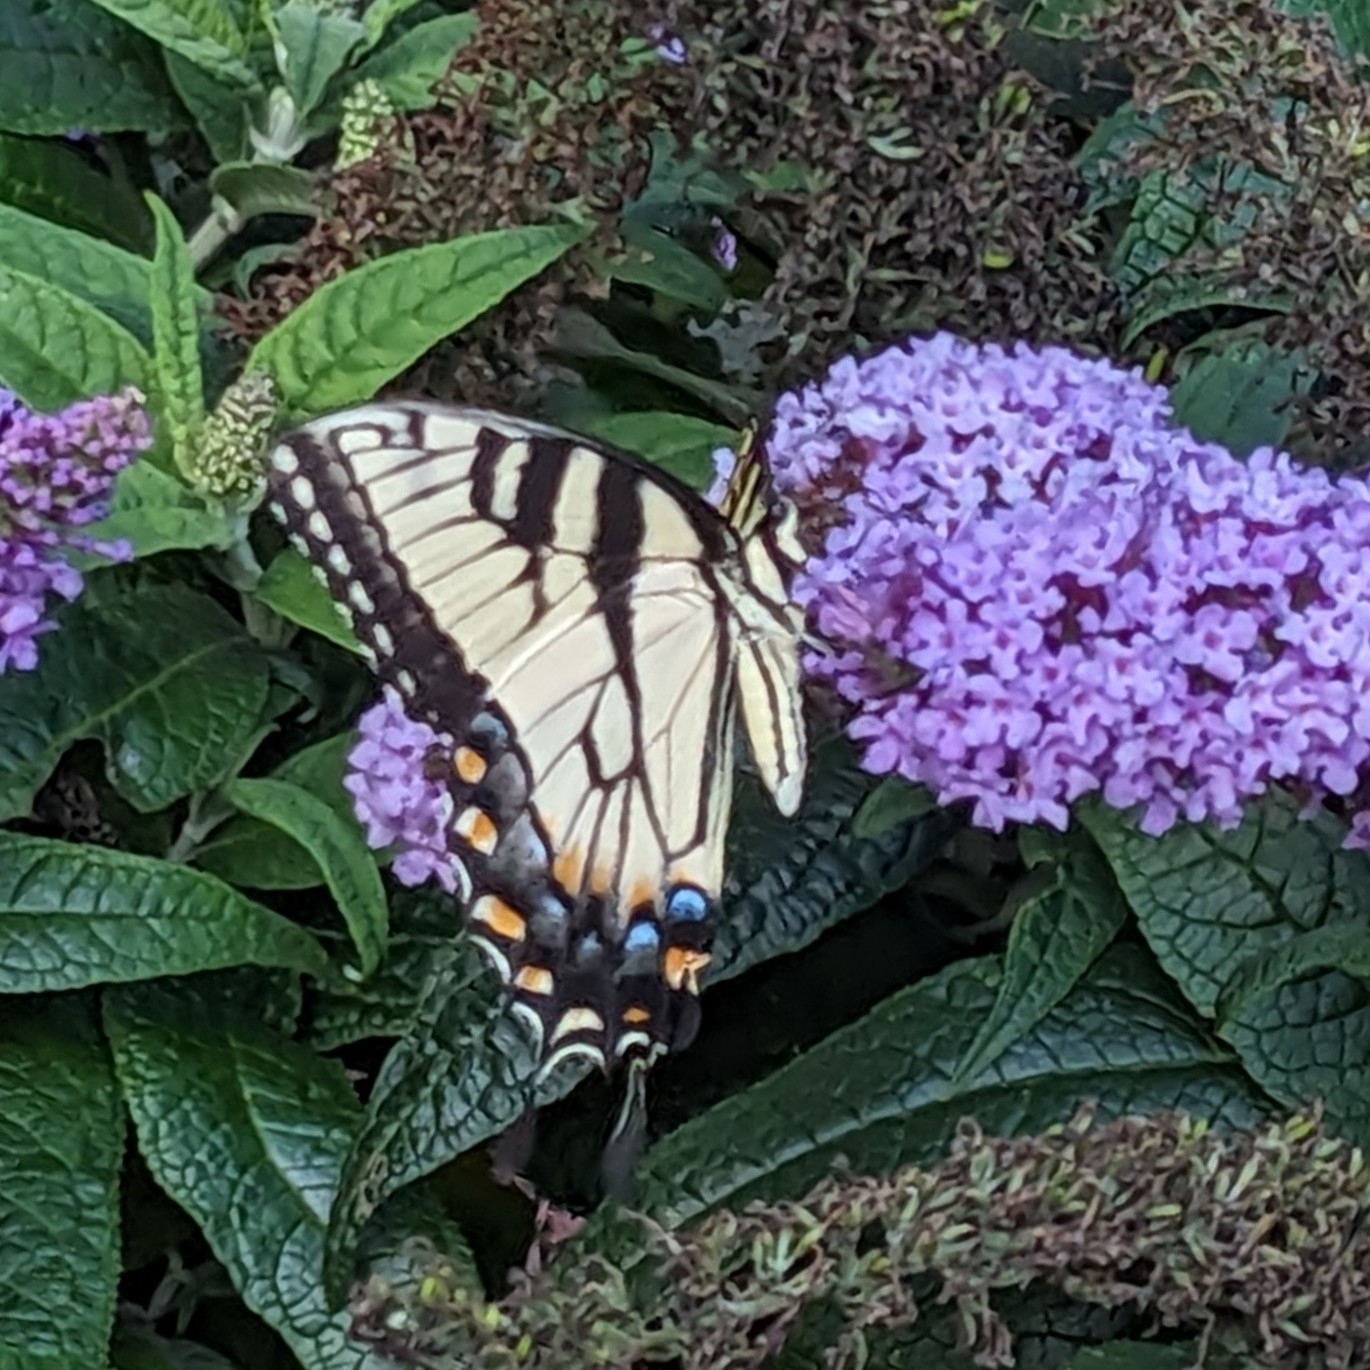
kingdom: Animalia
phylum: Arthropoda
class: Insecta
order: Lepidoptera
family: Papilionidae
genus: Papilio
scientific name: Papilio glaucus
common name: Tiger swallowtail
